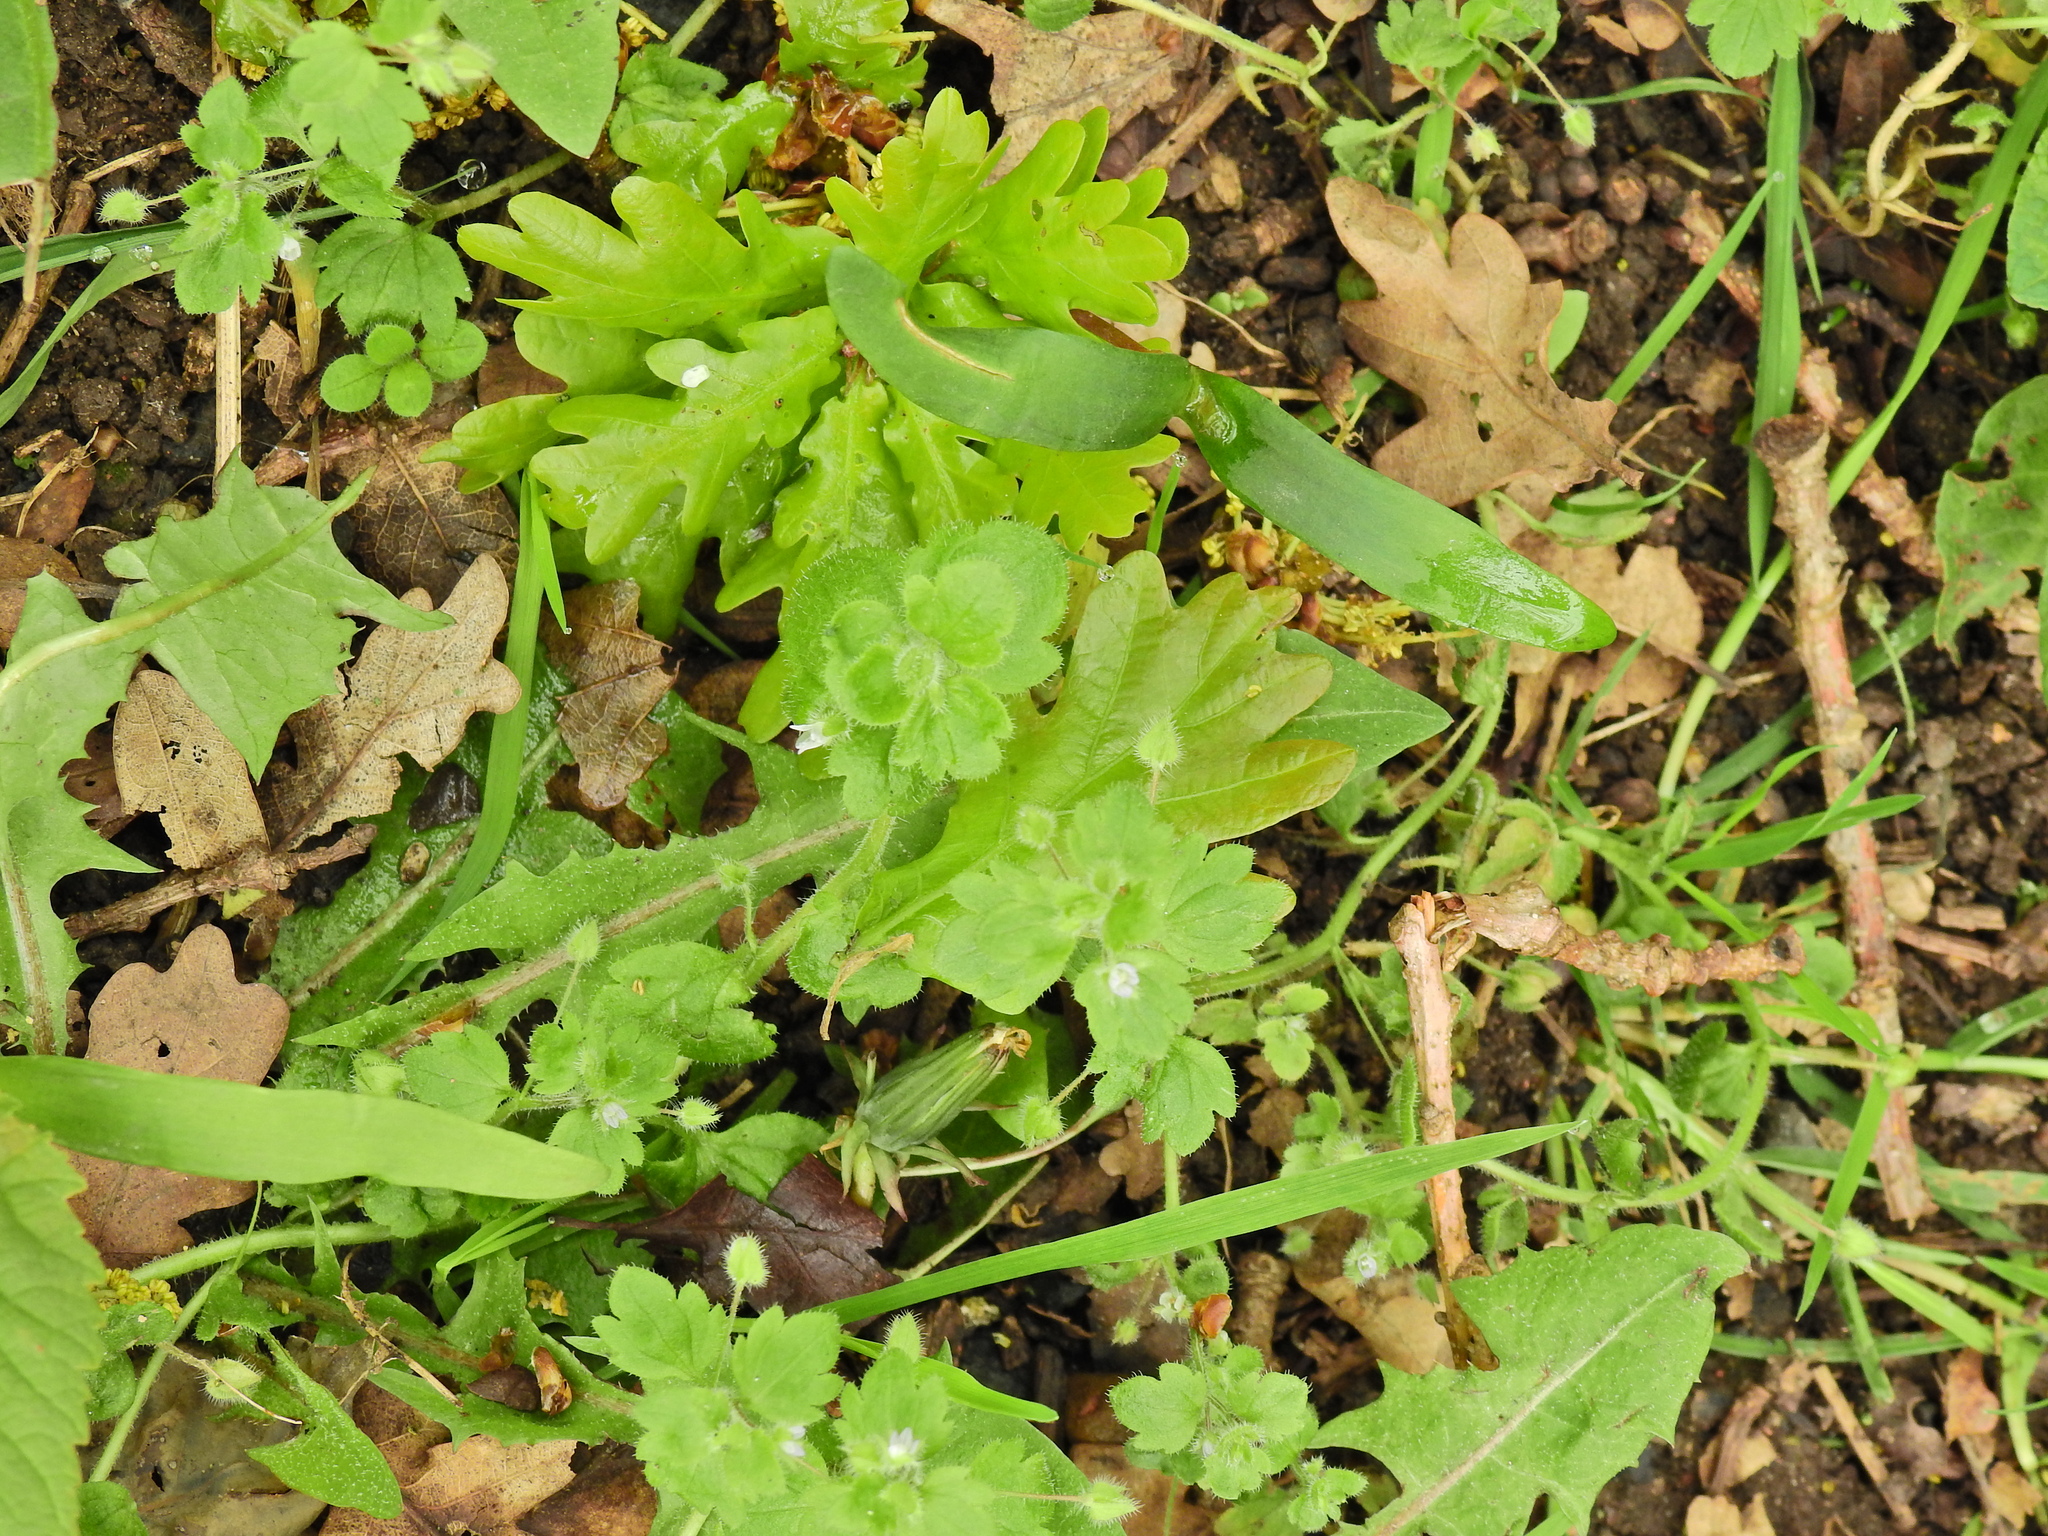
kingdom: Plantae
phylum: Tracheophyta
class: Magnoliopsida
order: Lamiales
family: Plantaginaceae
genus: Veronica
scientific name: Veronica sublobata
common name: False ivy-leaved speedwell
